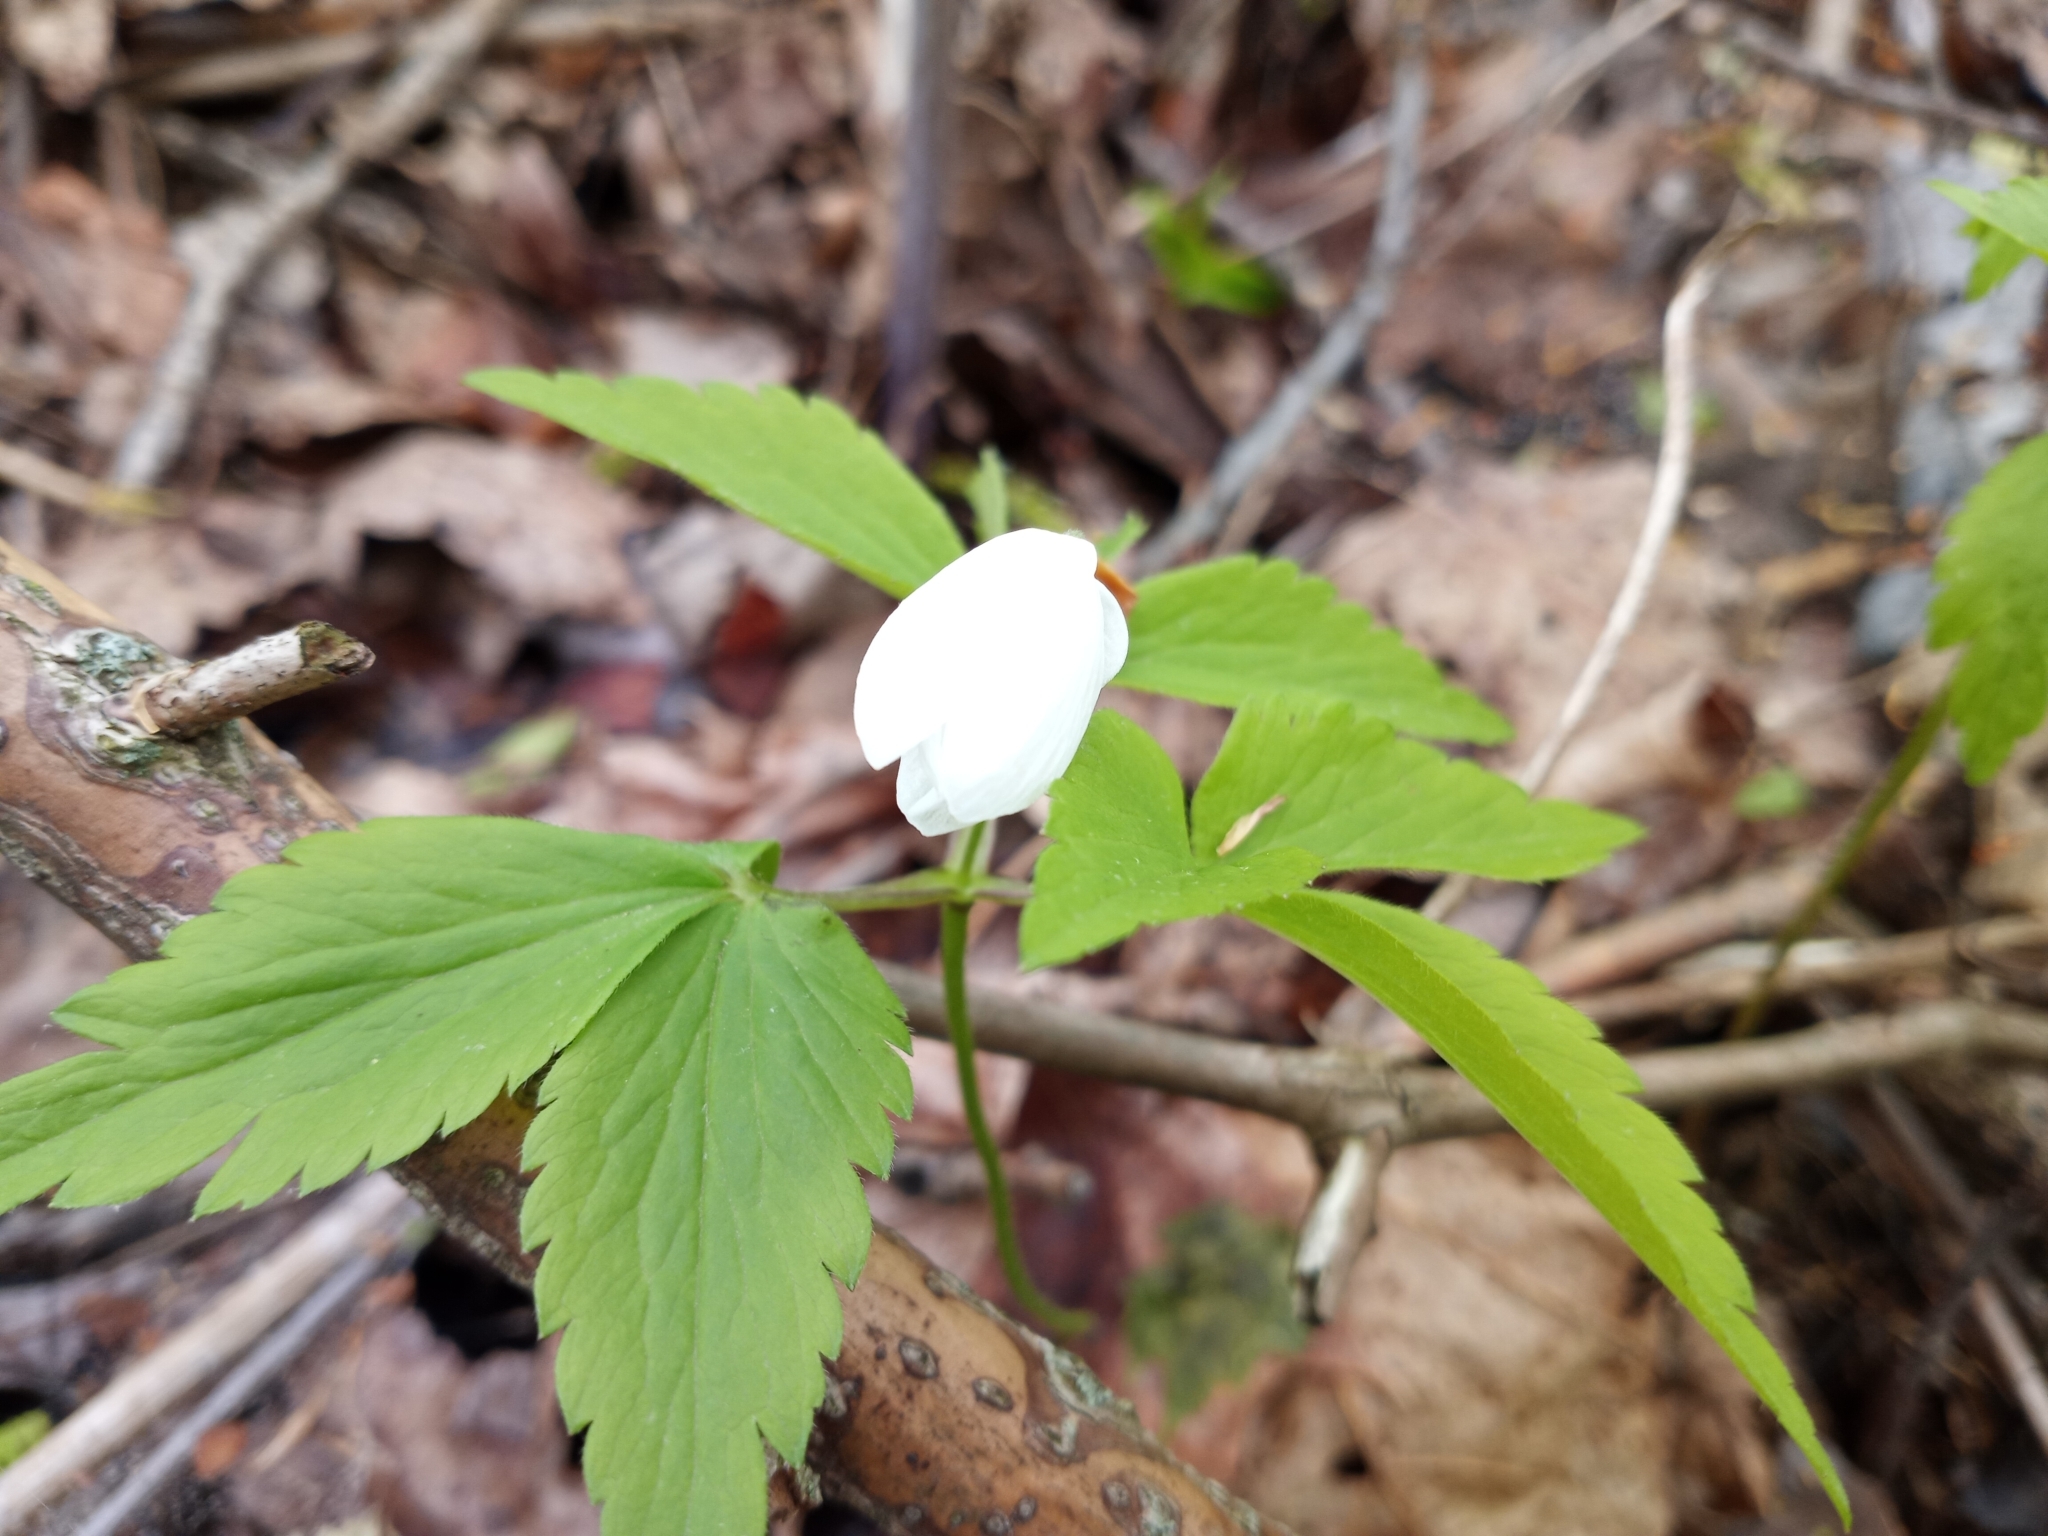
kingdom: Plantae
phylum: Tracheophyta
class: Magnoliopsida
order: Ranunculales
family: Ranunculaceae
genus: Anemone
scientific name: Anemone quinquefolia
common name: Wood anemone
